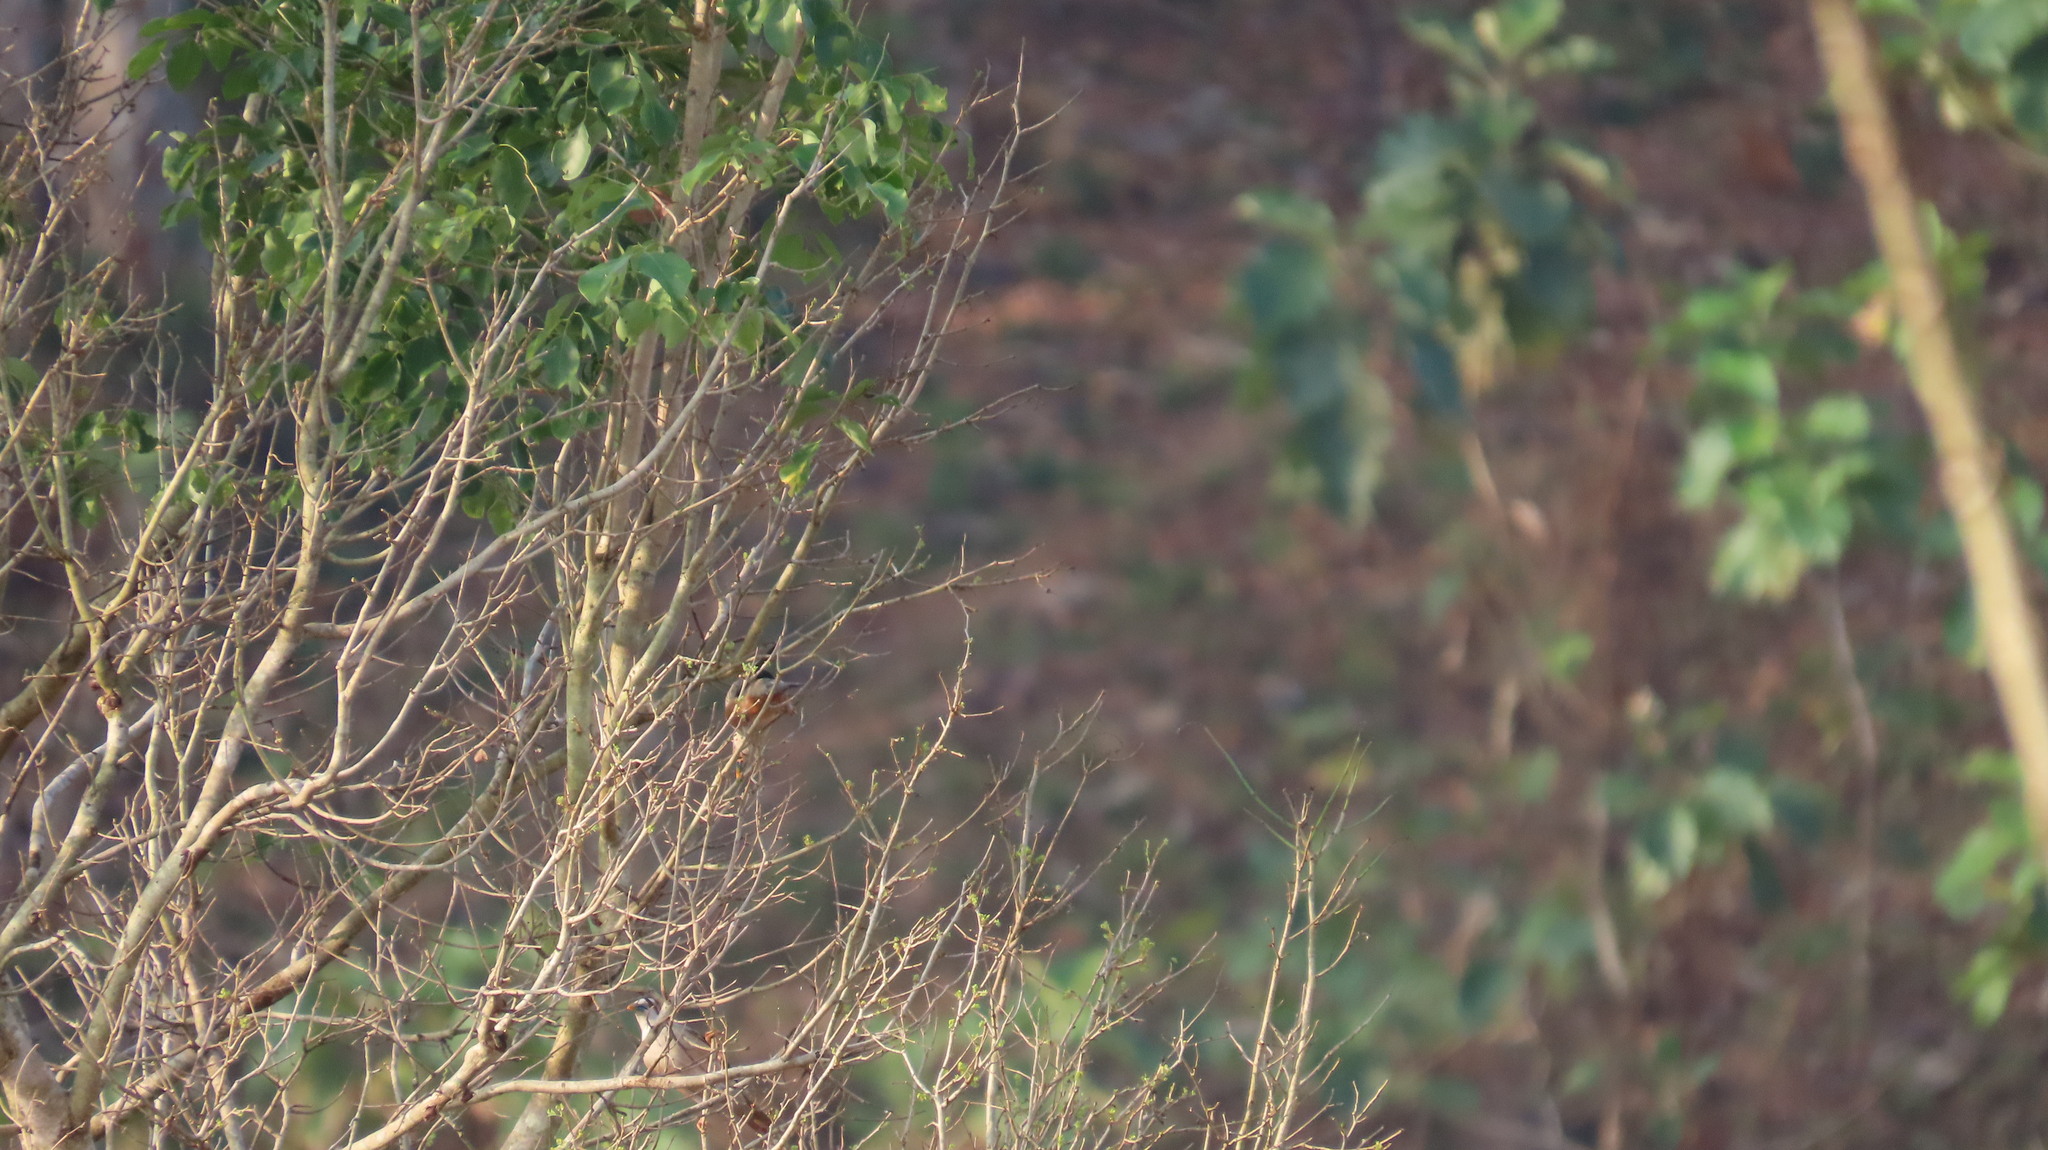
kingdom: Animalia
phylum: Chordata
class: Aves
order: Passeriformes
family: Sturnidae
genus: Sturnia
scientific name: Sturnia blythii
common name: Malabar starling
